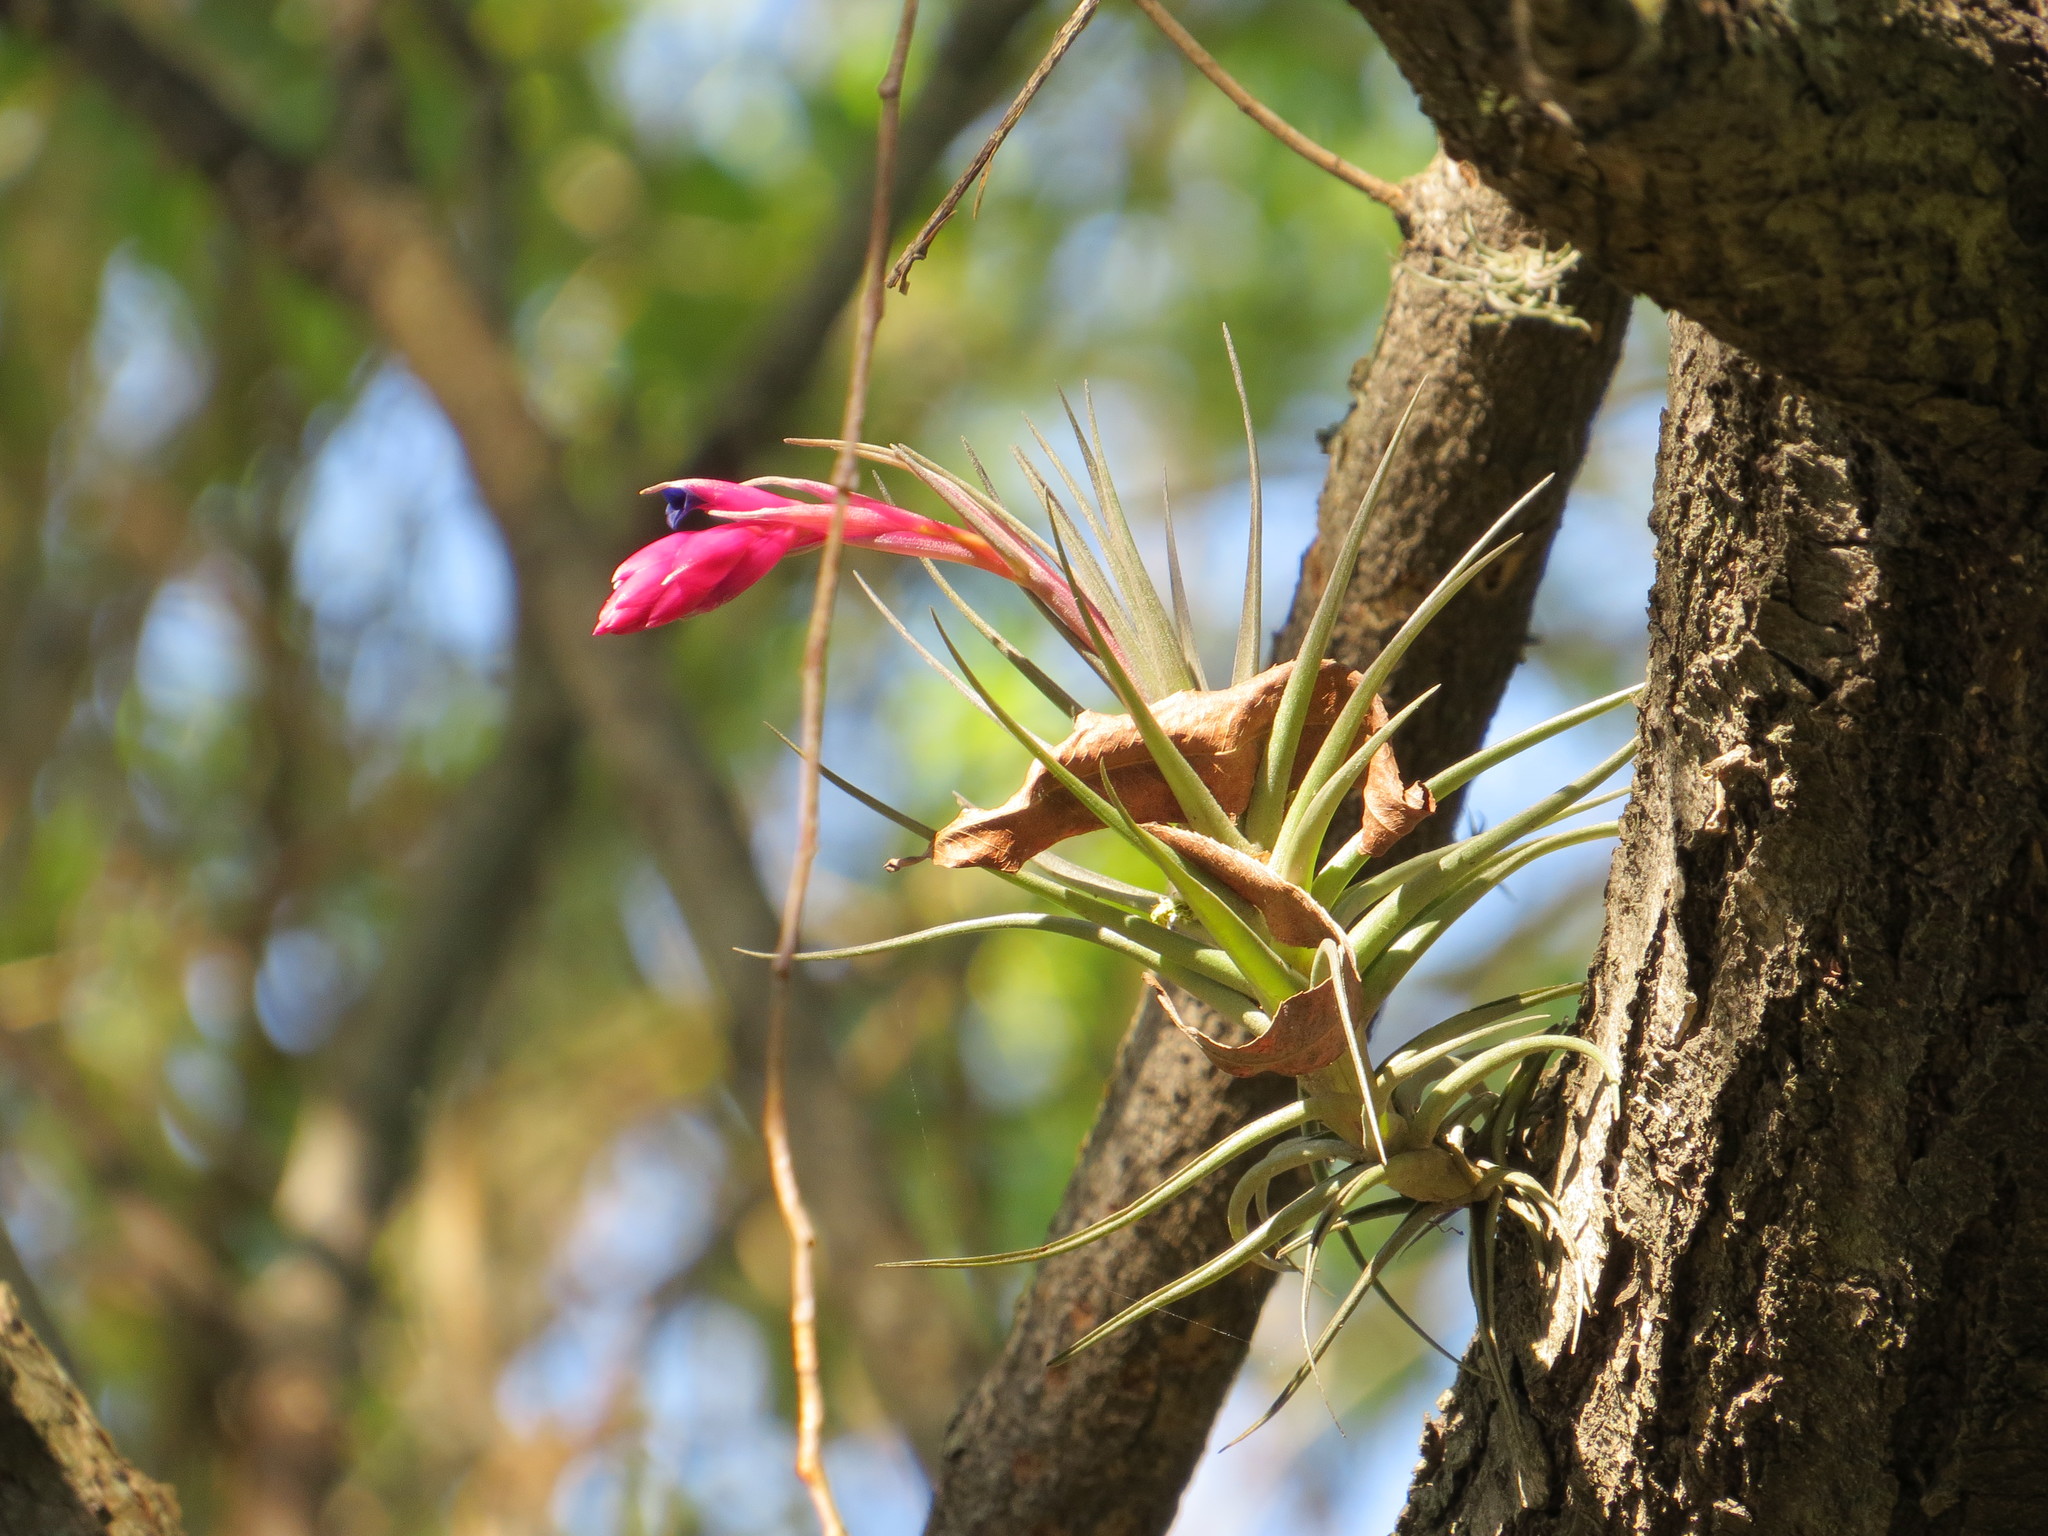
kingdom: Plantae
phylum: Tracheophyta
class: Liliopsida
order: Poales
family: Bromeliaceae
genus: Tillandsia
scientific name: Tillandsia aeranthos
